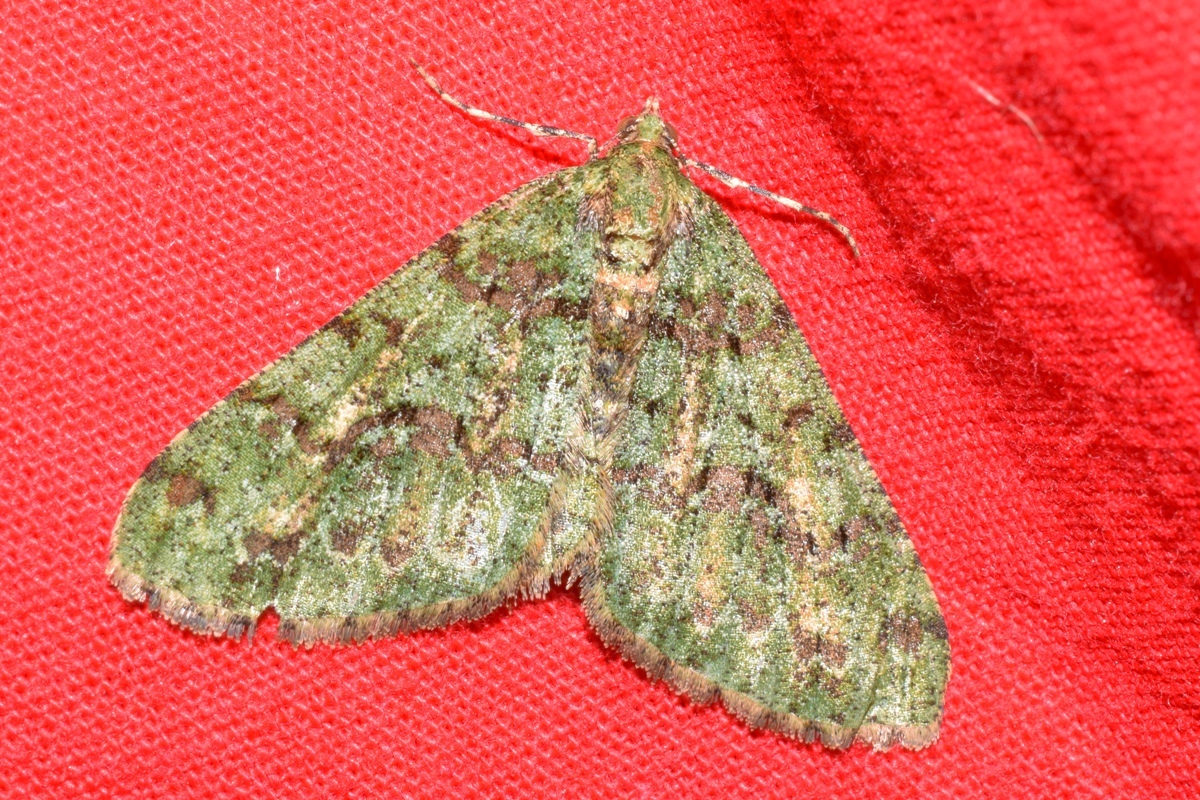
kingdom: Animalia
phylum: Arthropoda
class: Insecta
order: Lepidoptera
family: Geometridae
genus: Myrioblephara
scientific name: Myrioblephara duplexa
